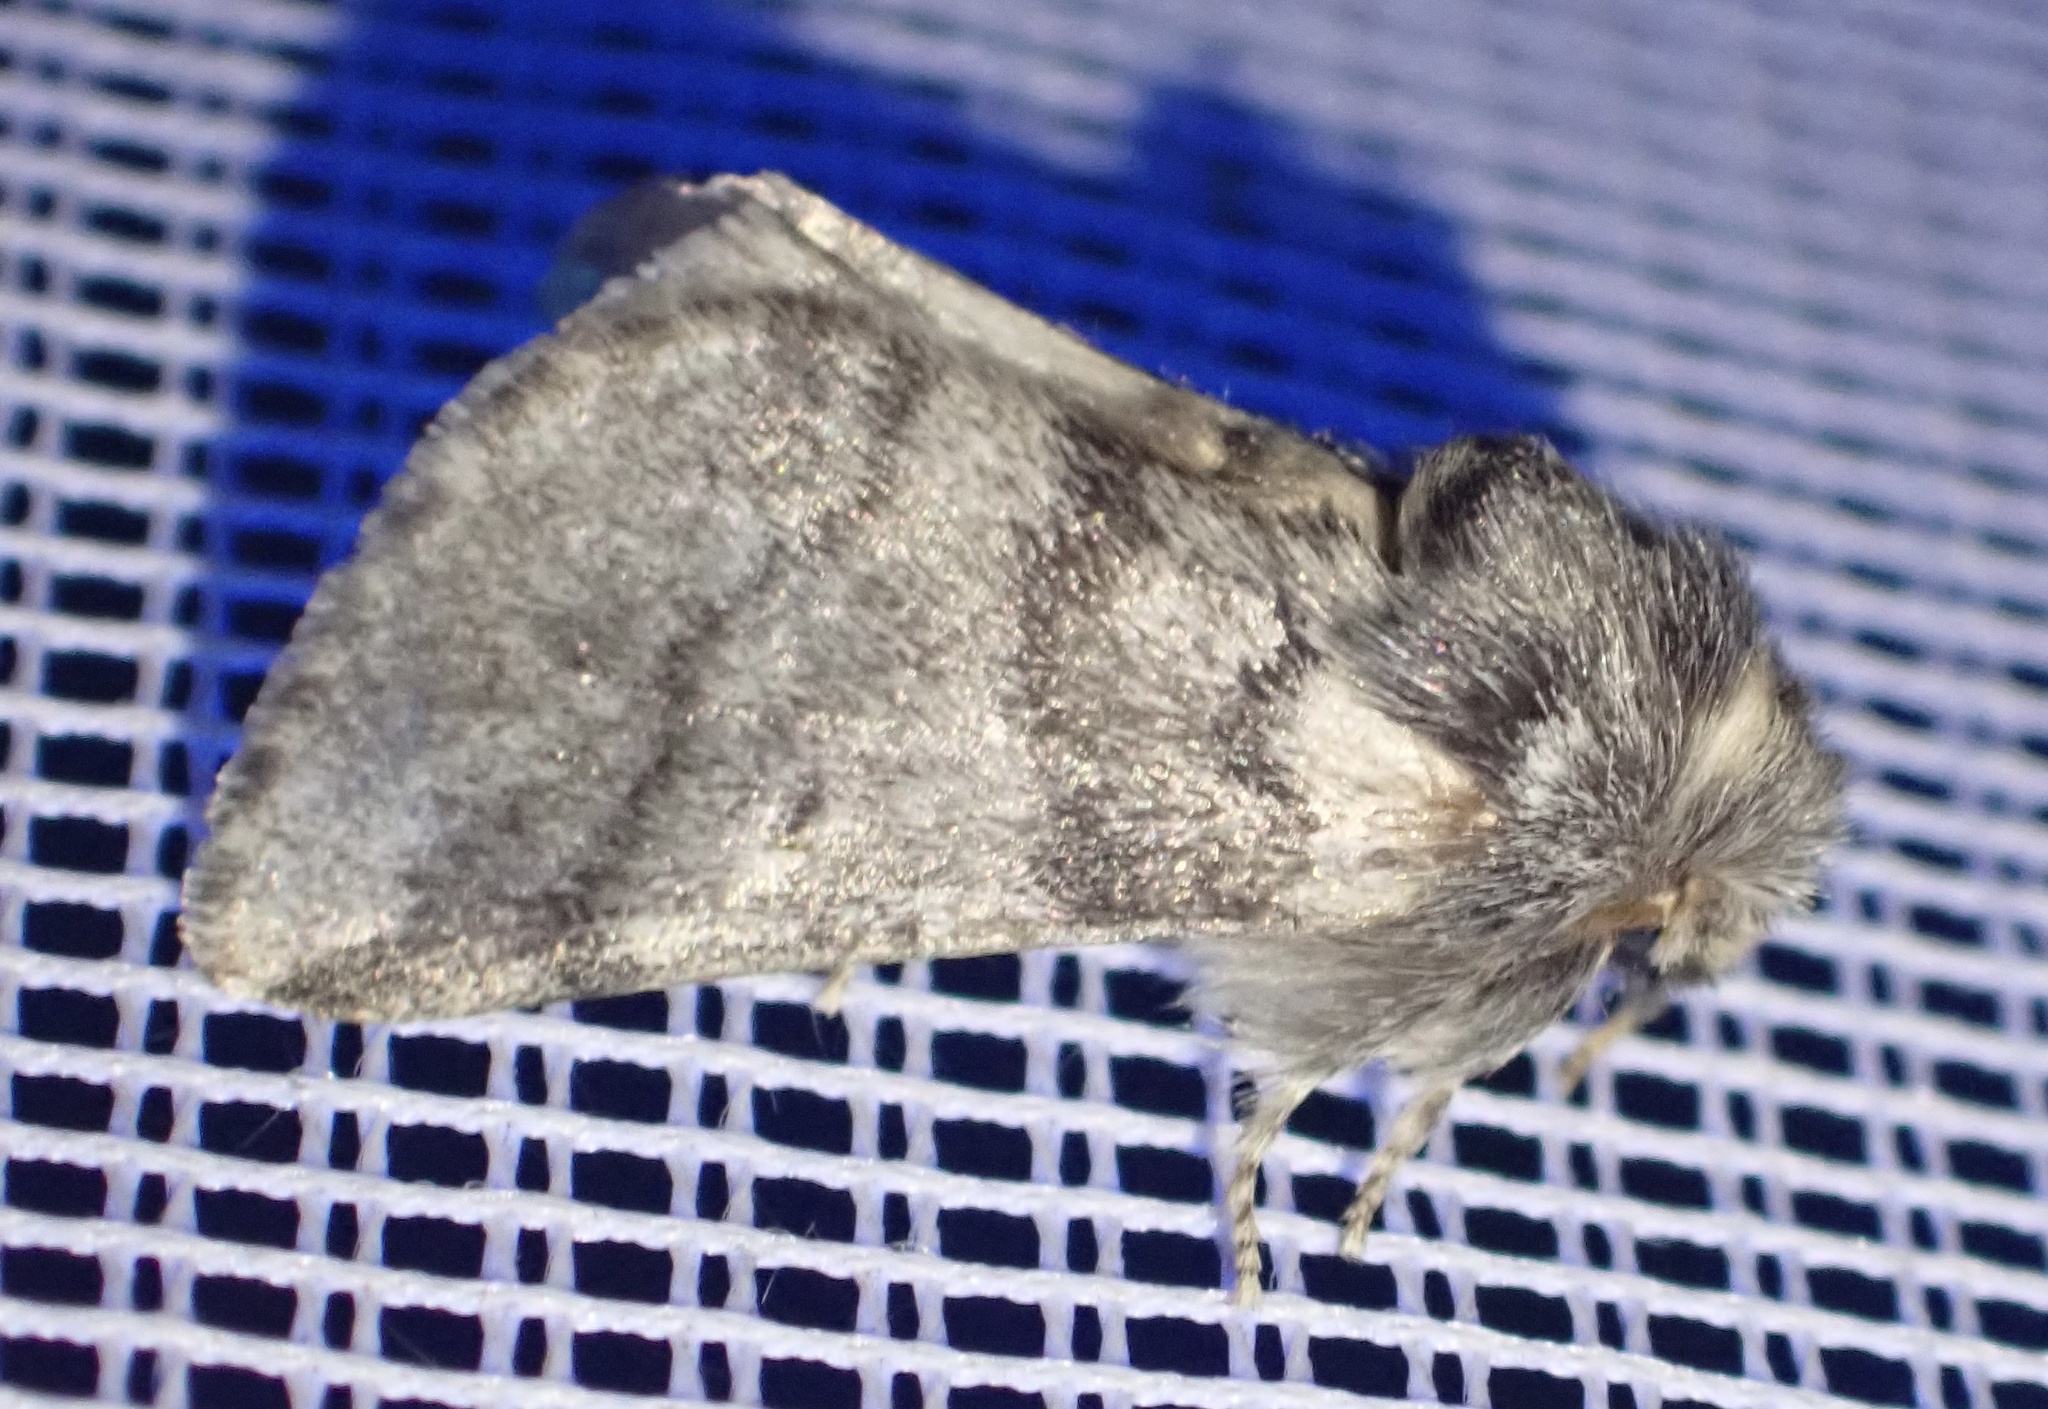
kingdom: Animalia
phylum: Arthropoda
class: Insecta
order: Lepidoptera
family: Notodontidae
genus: Thaumetopoea
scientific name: Thaumetopoea processionea
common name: Oak processionea
